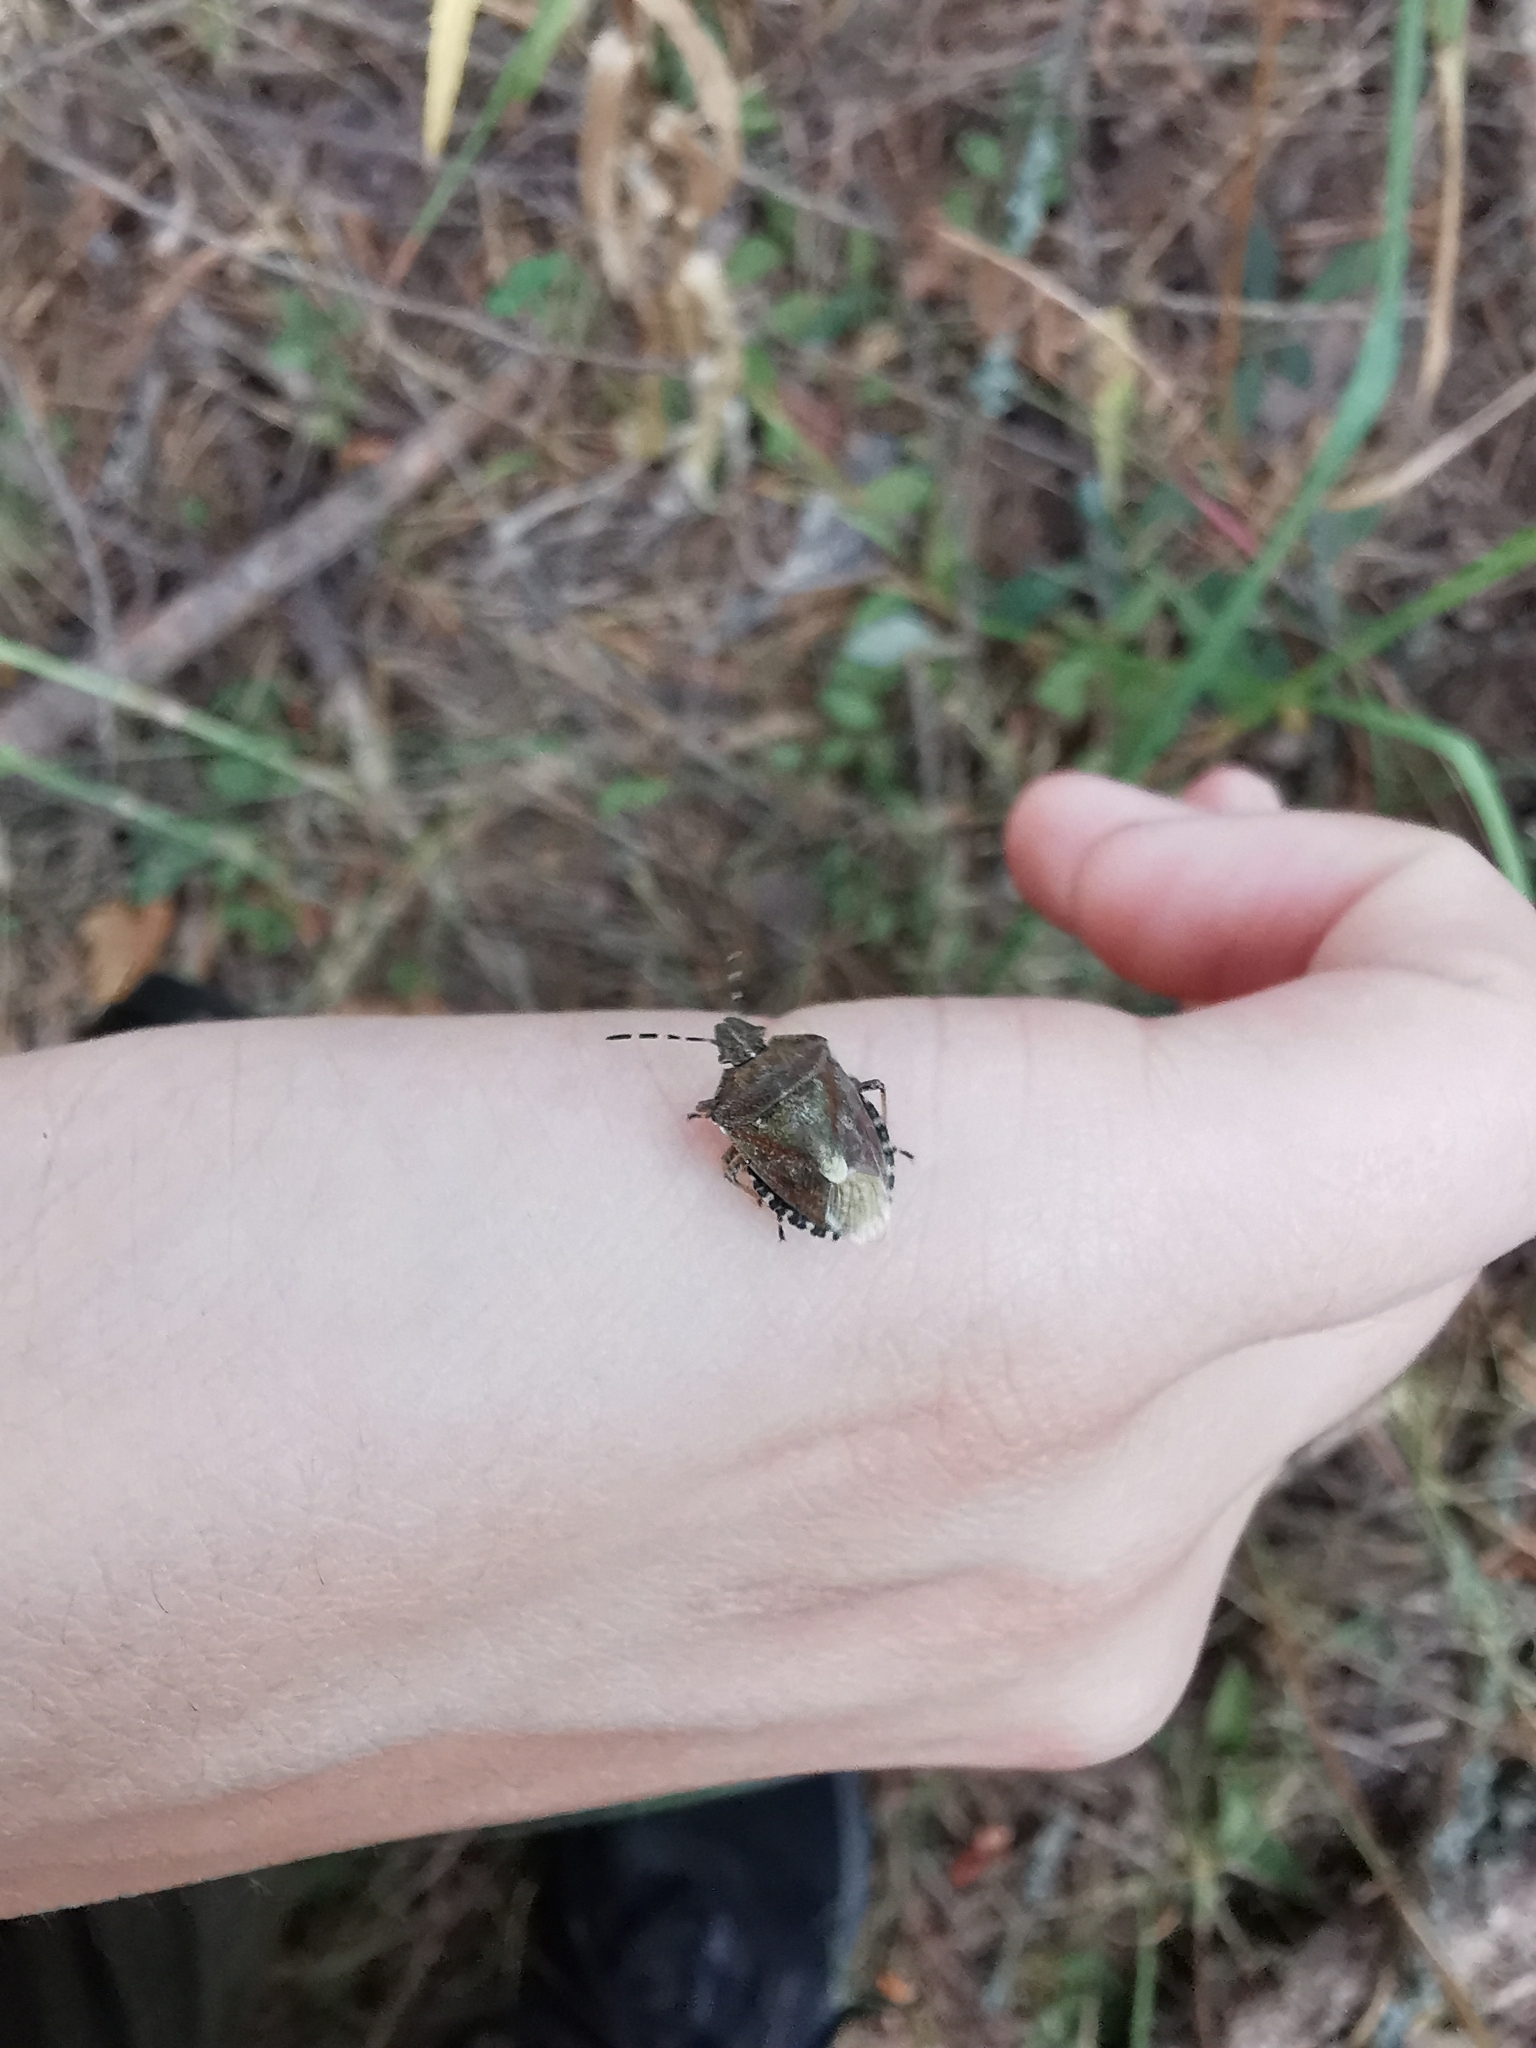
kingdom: Animalia
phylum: Arthropoda
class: Insecta
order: Hemiptera
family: Pentatomidae
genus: Dolycoris
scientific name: Dolycoris baccarum
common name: Sloe bug
